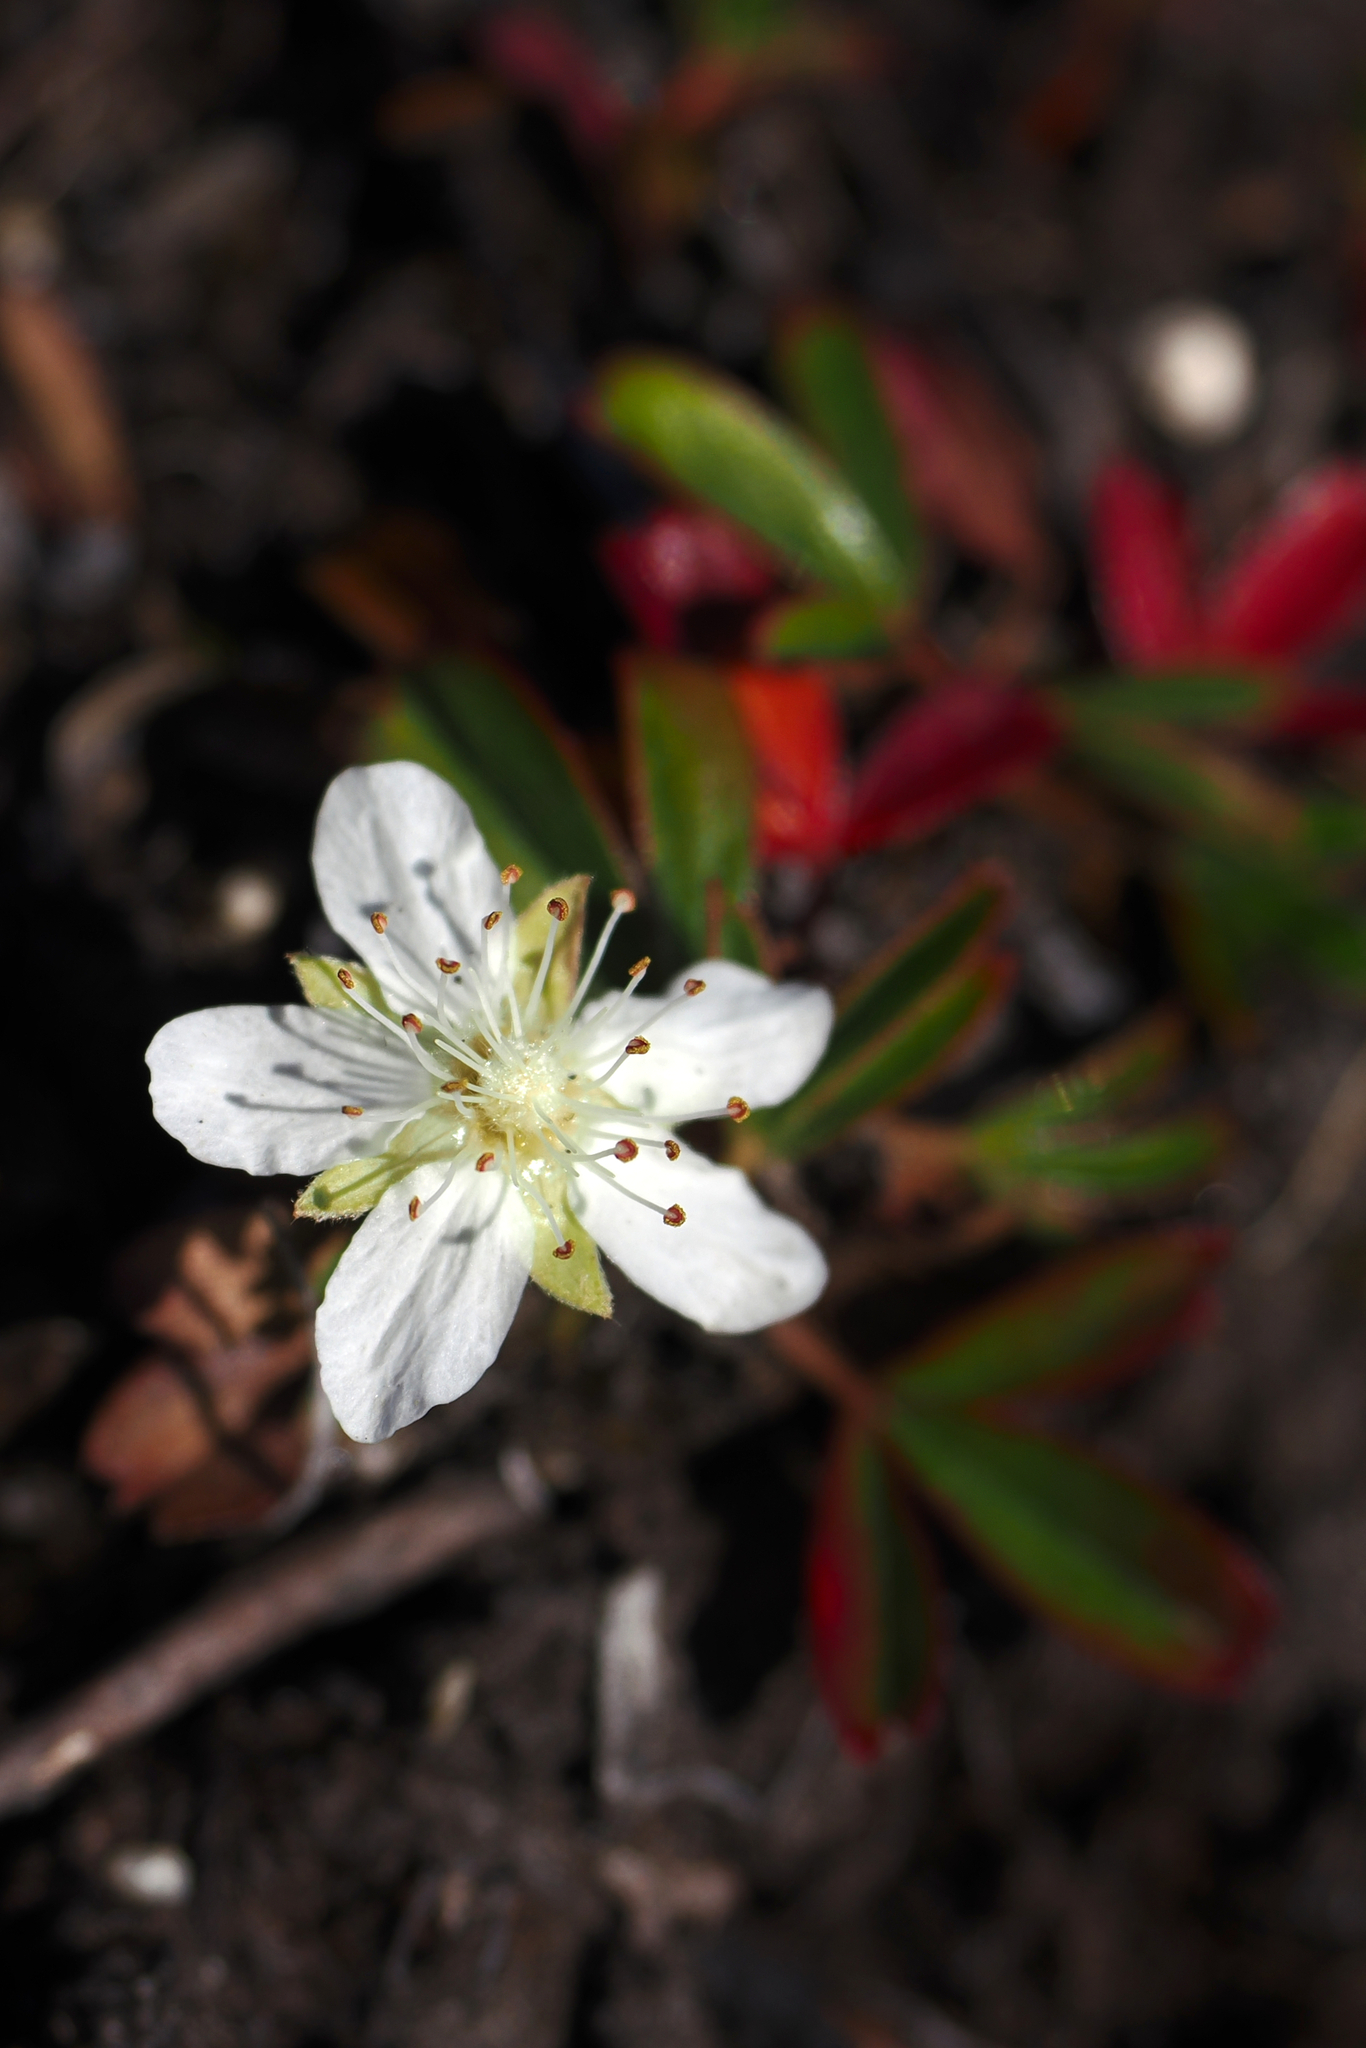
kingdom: Plantae
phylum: Tracheophyta
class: Magnoliopsida
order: Rosales
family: Rosaceae
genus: Sibbaldia
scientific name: Sibbaldia tridentata
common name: Three-toothed cinquefoil
